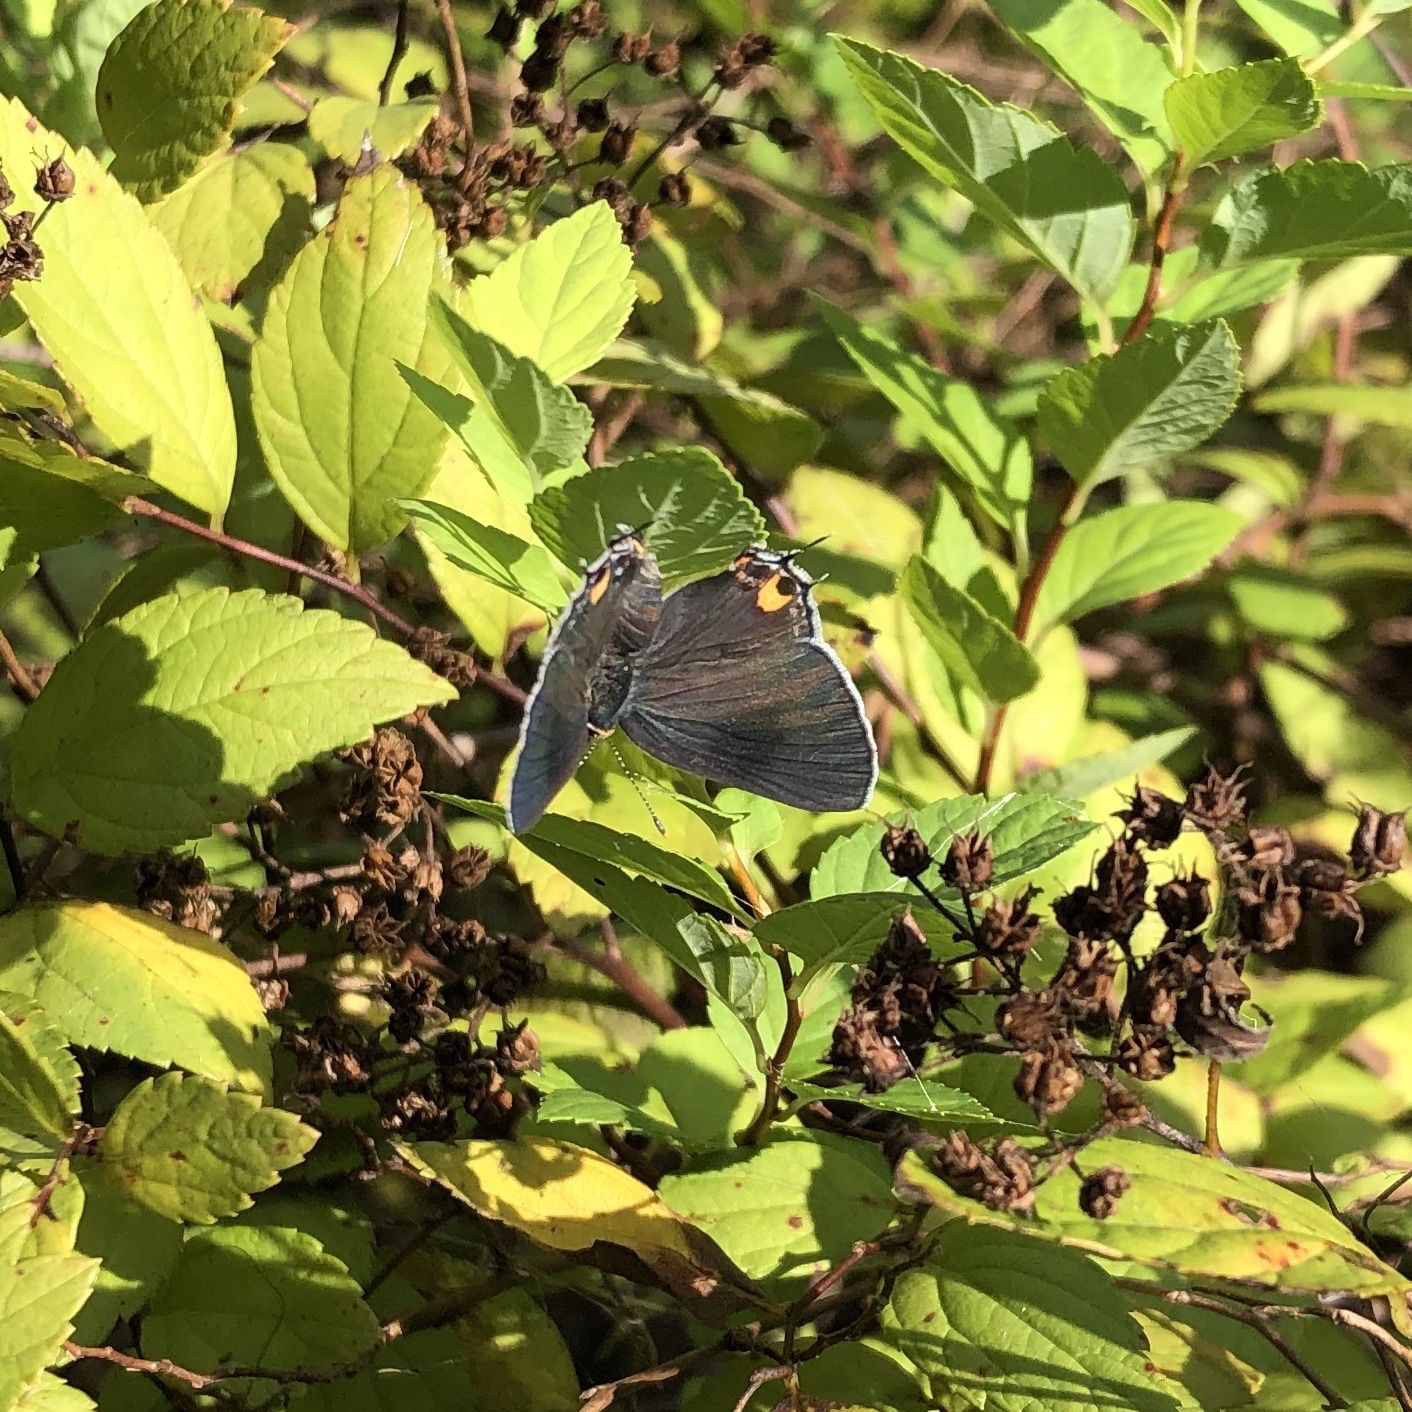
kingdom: Animalia
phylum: Arthropoda
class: Insecta
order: Lepidoptera
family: Lycaenidae
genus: Strymon
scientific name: Strymon melinus
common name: Gray hairstreak
